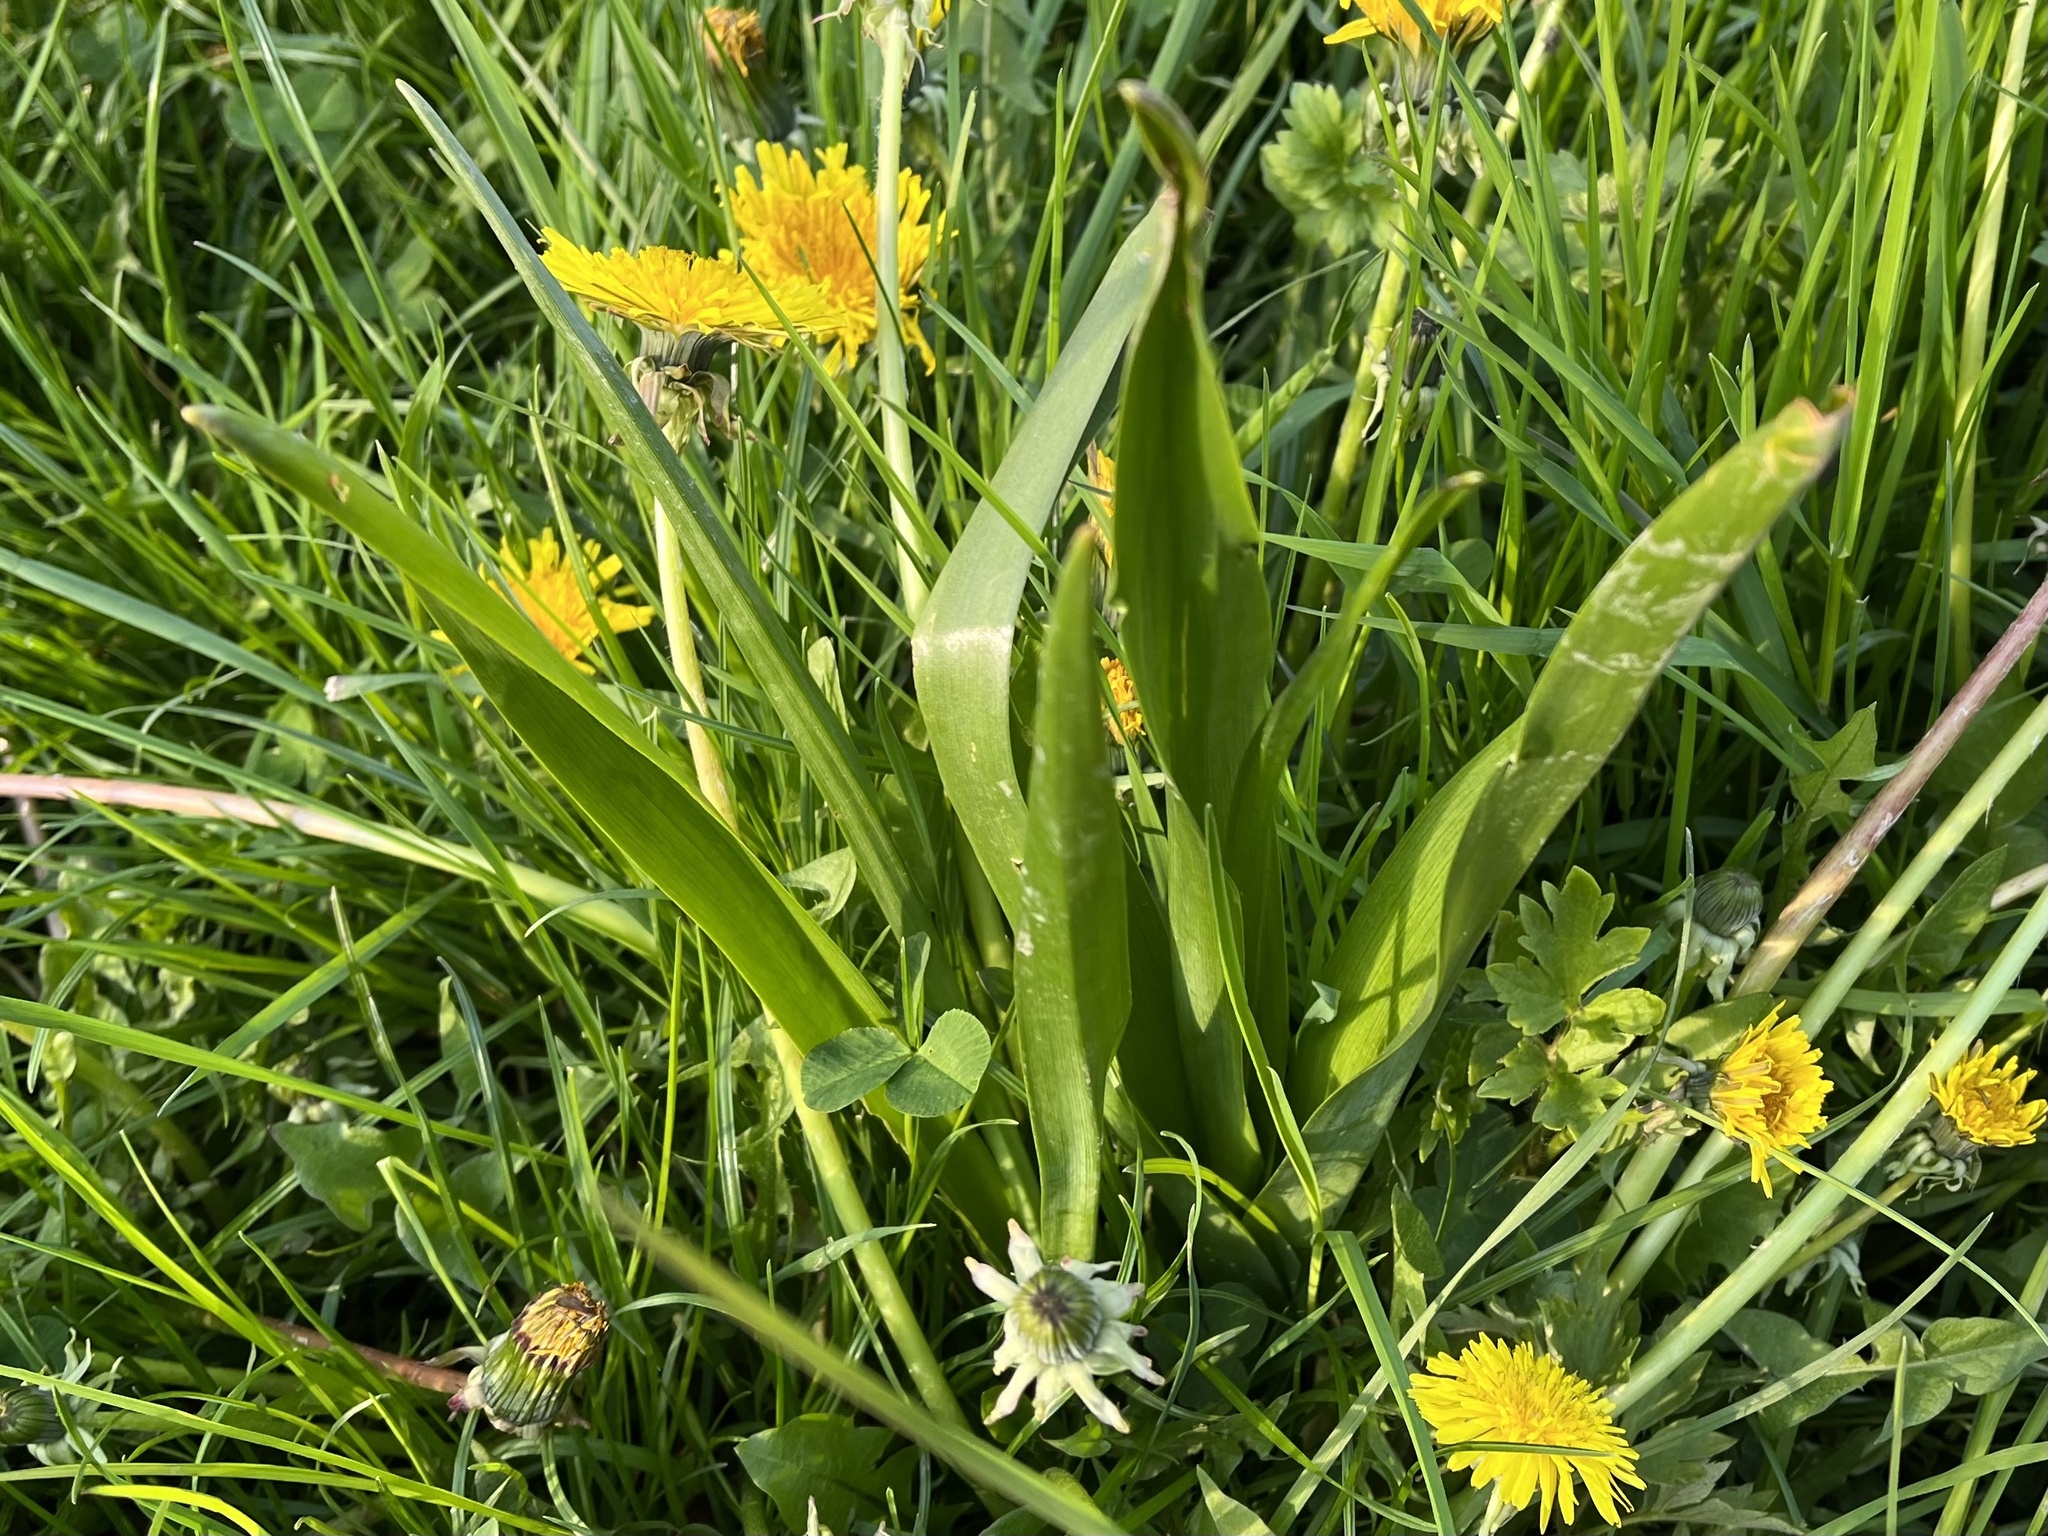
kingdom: Plantae
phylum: Tracheophyta
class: Liliopsida
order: Liliales
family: Colchicaceae
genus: Colchicum
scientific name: Colchicum autumnale
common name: Autumn crocus
